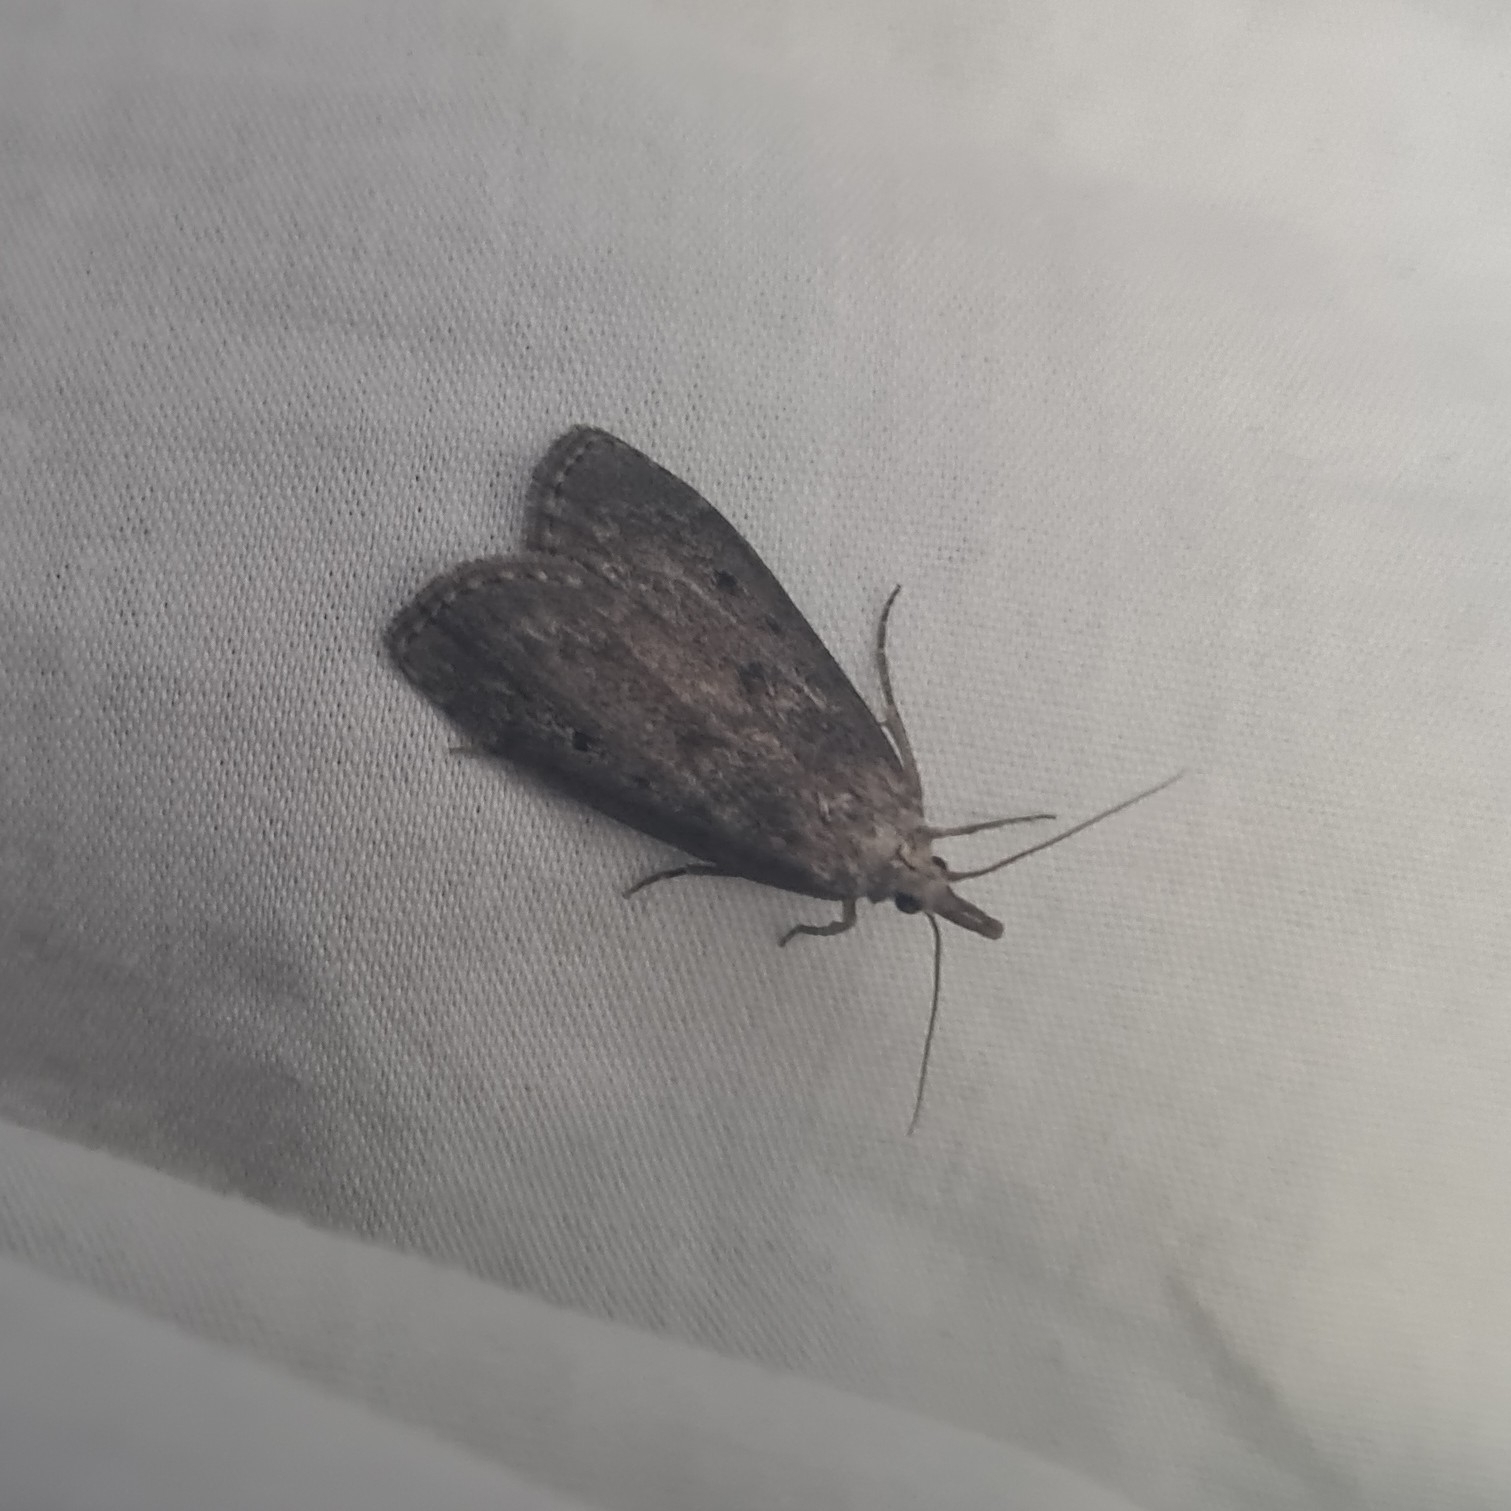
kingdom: Animalia
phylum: Arthropoda
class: Insecta
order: Lepidoptera
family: Pyralidae
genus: Aphomia
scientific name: Aphomia sociella
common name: Bee moth
